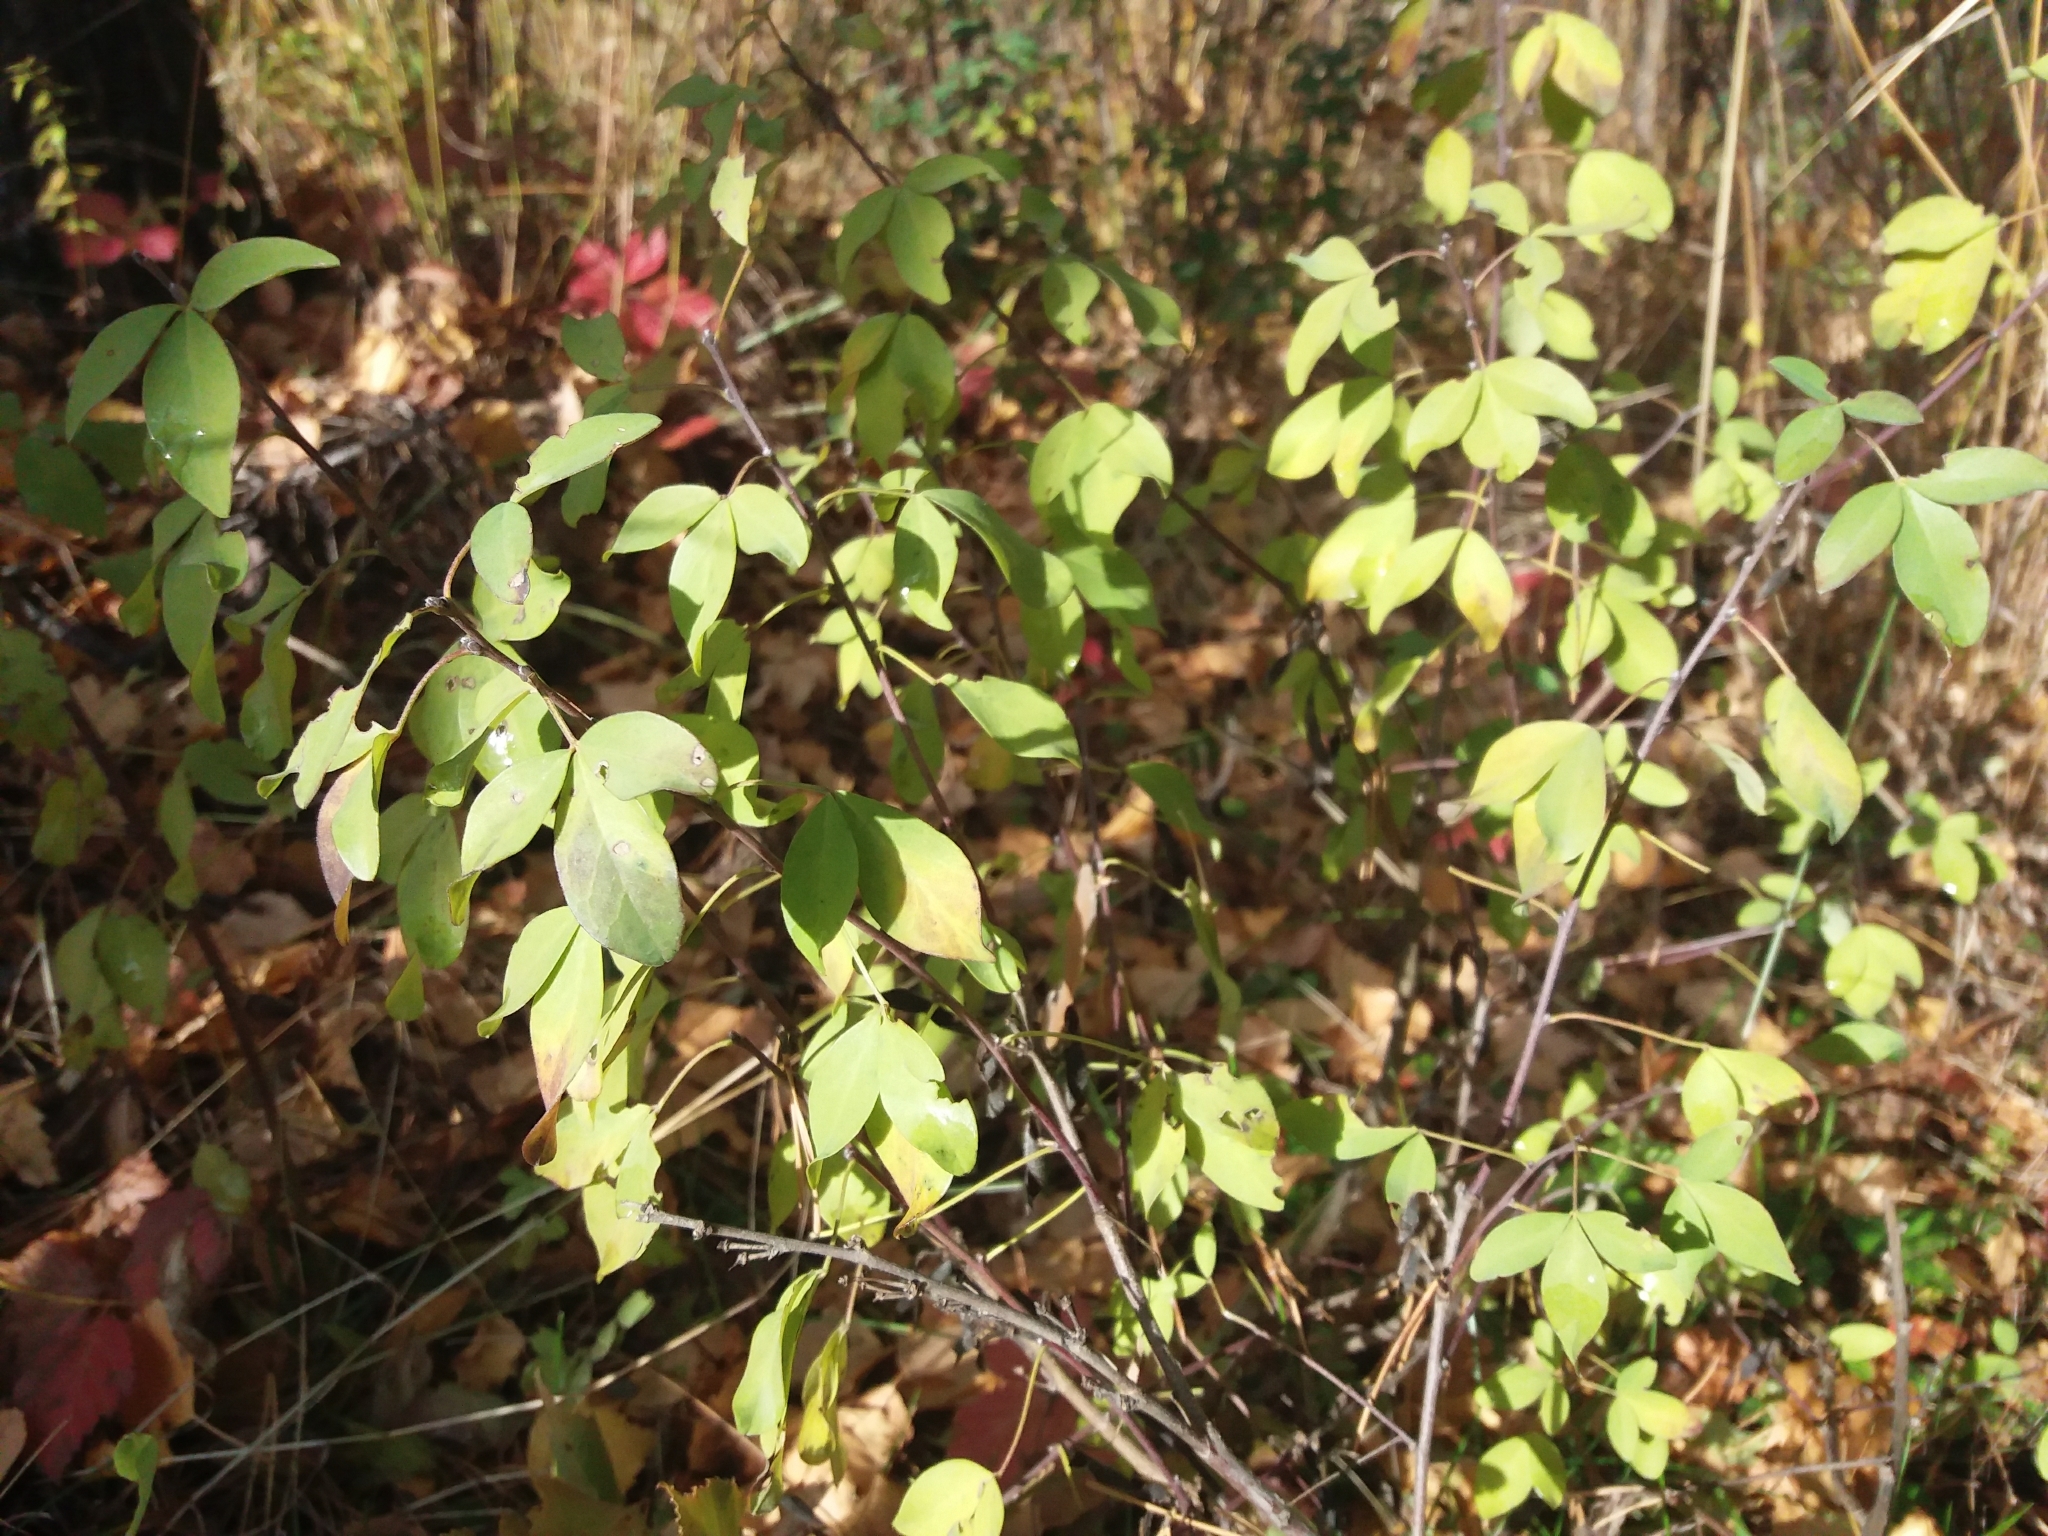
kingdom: Plantae
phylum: Tracheophyta
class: Magnoliopsida
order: Fabales
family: Fabaceae
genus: Chamaecytisus
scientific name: Chamaecytisus ruthenicus
